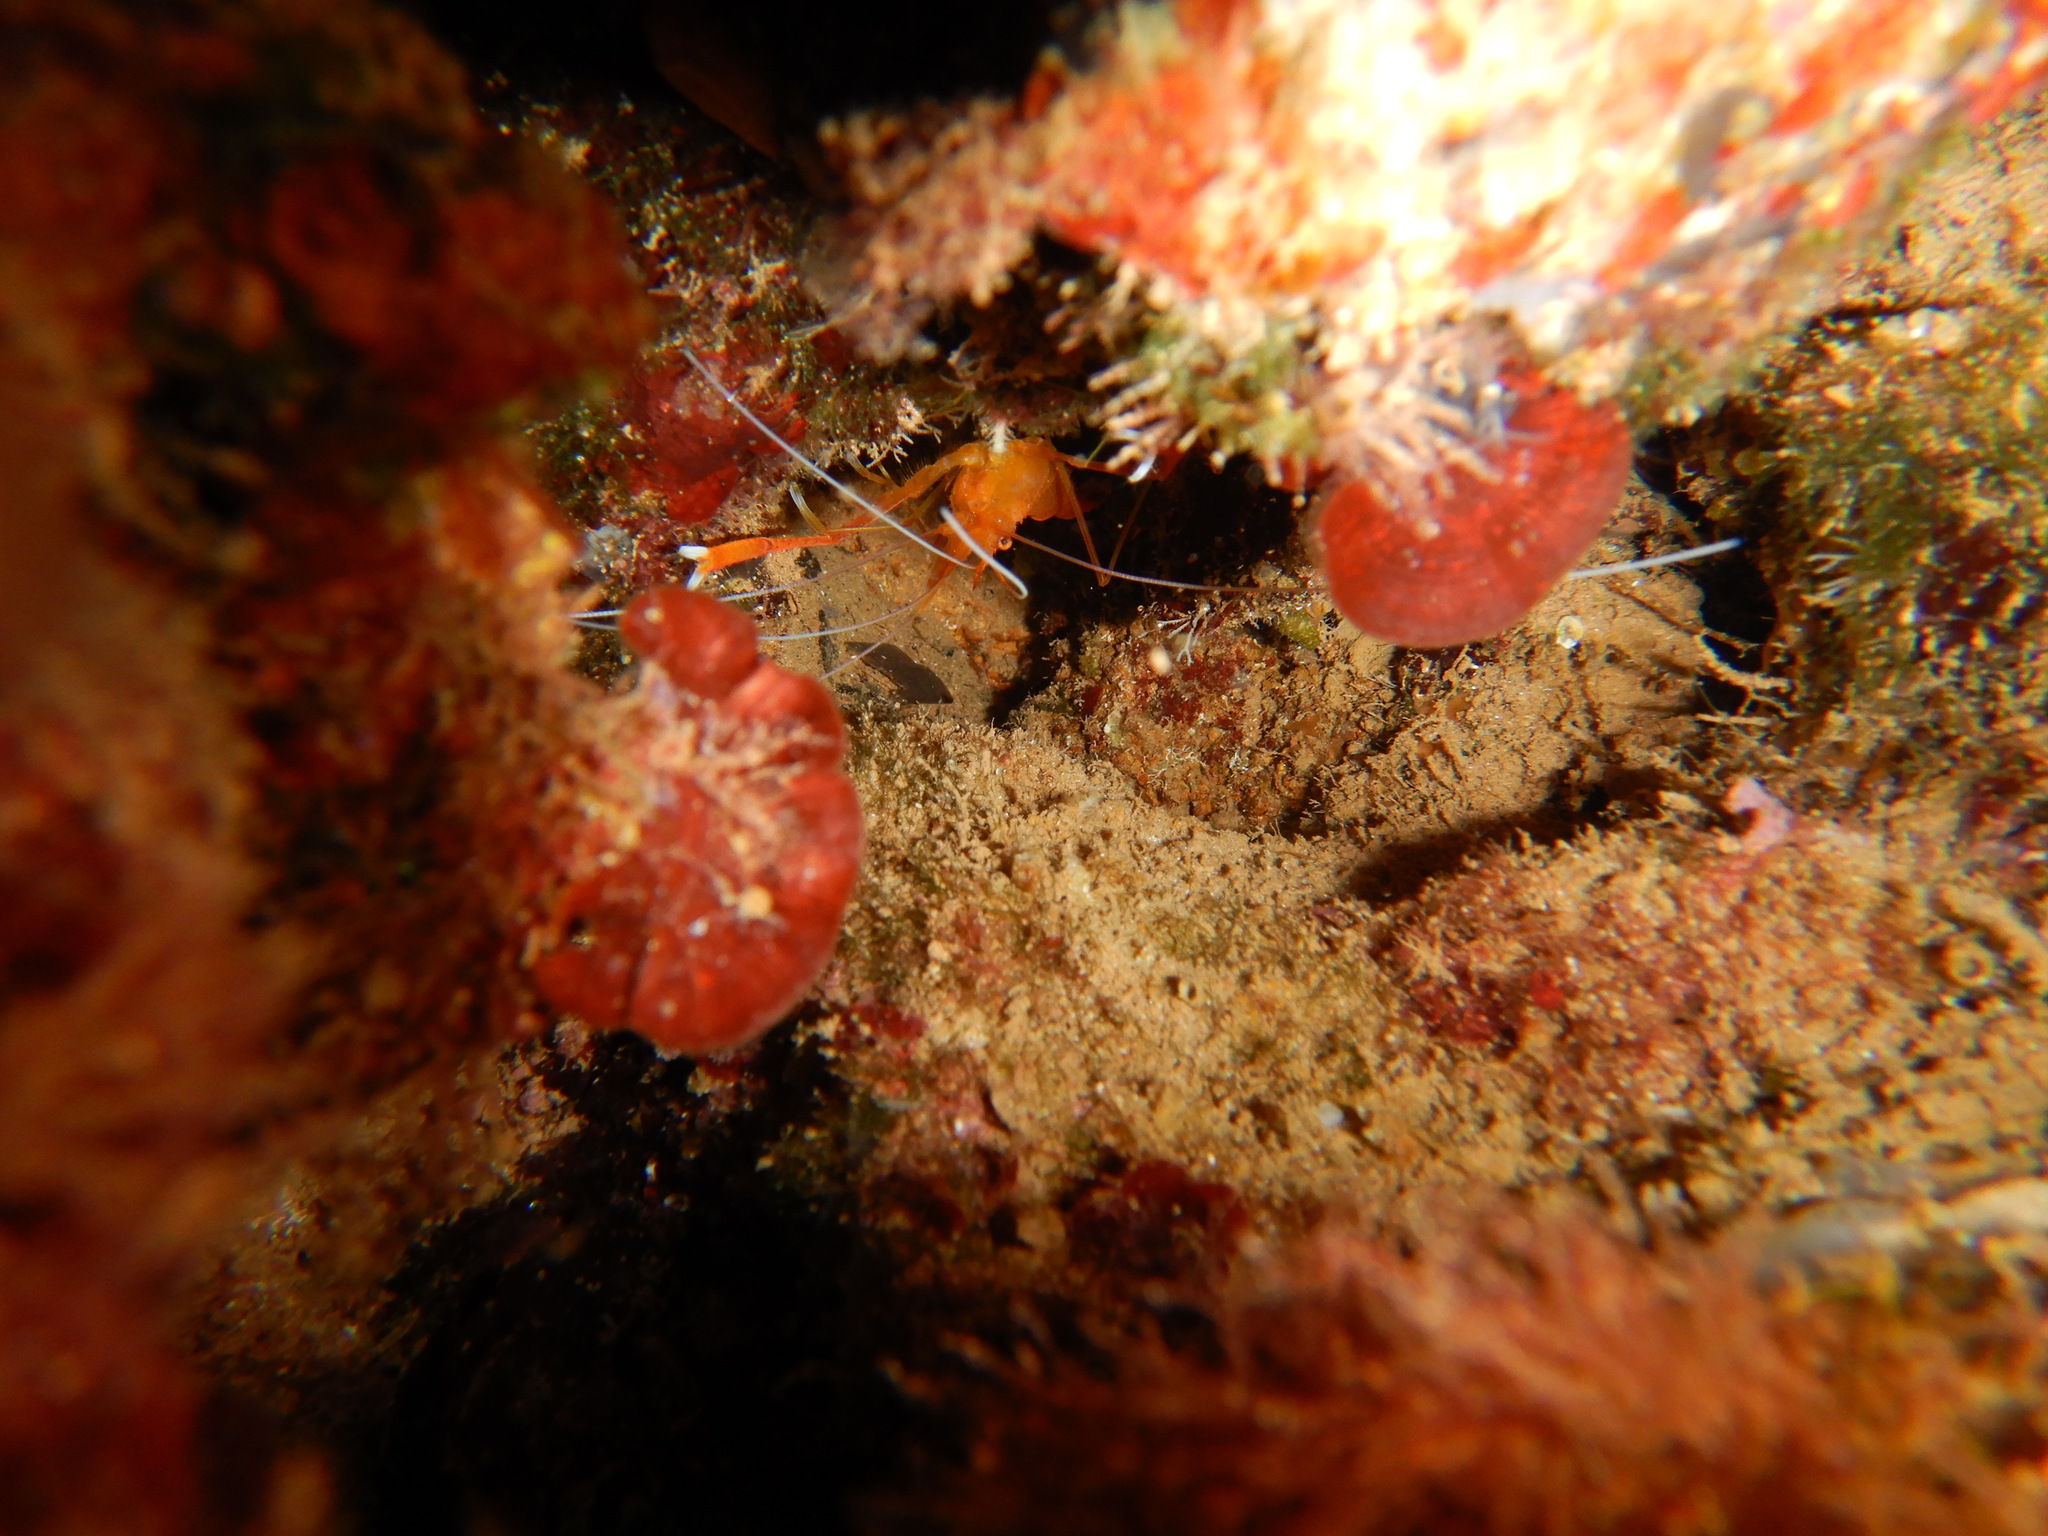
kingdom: Animalia
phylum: Arthropoda
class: Malacostraca
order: Decapoda
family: Stenopodidae
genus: Stenopus
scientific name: Stenopus spinosus
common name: Golden coral shrimp
